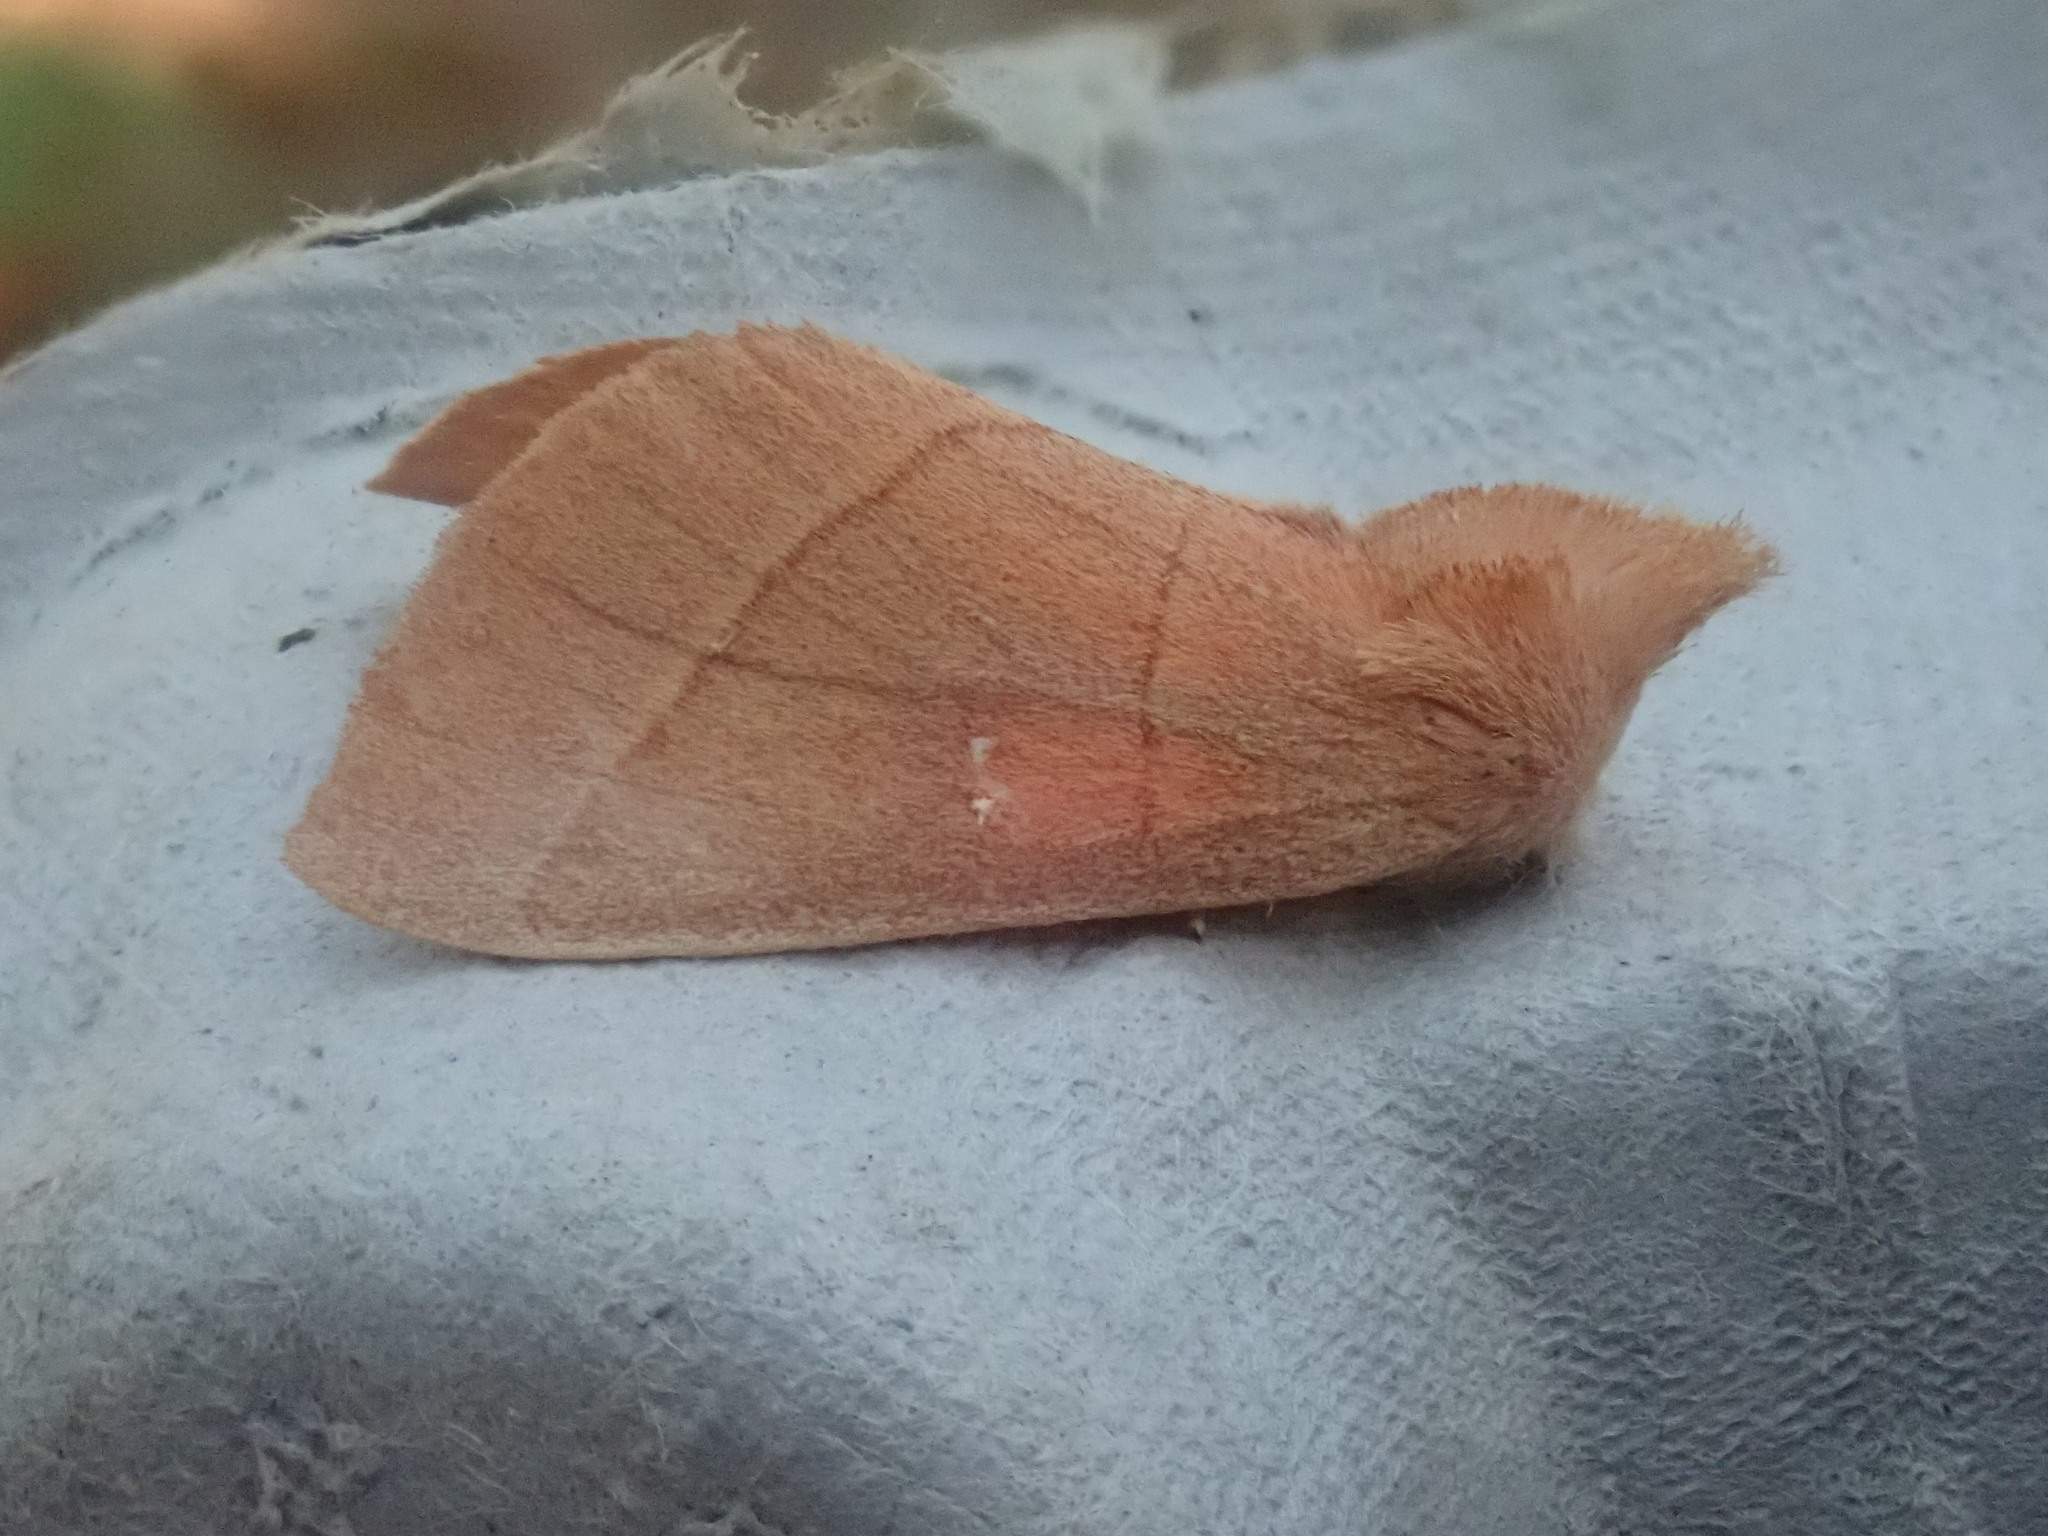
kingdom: Animalia
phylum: Arthropoda
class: Insecta
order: Lepidoptera
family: Notodontidae
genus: Nadata
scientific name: Nadata gibbosa
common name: White-dotted prominent
